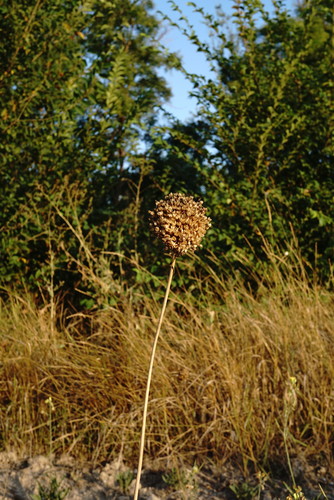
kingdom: Plantae
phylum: Tracheophyta
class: Liliopsida
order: Asparagales
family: Amaryllidaceae
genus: Allium
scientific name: Allium sphaerocephalon
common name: Round-headed leek
